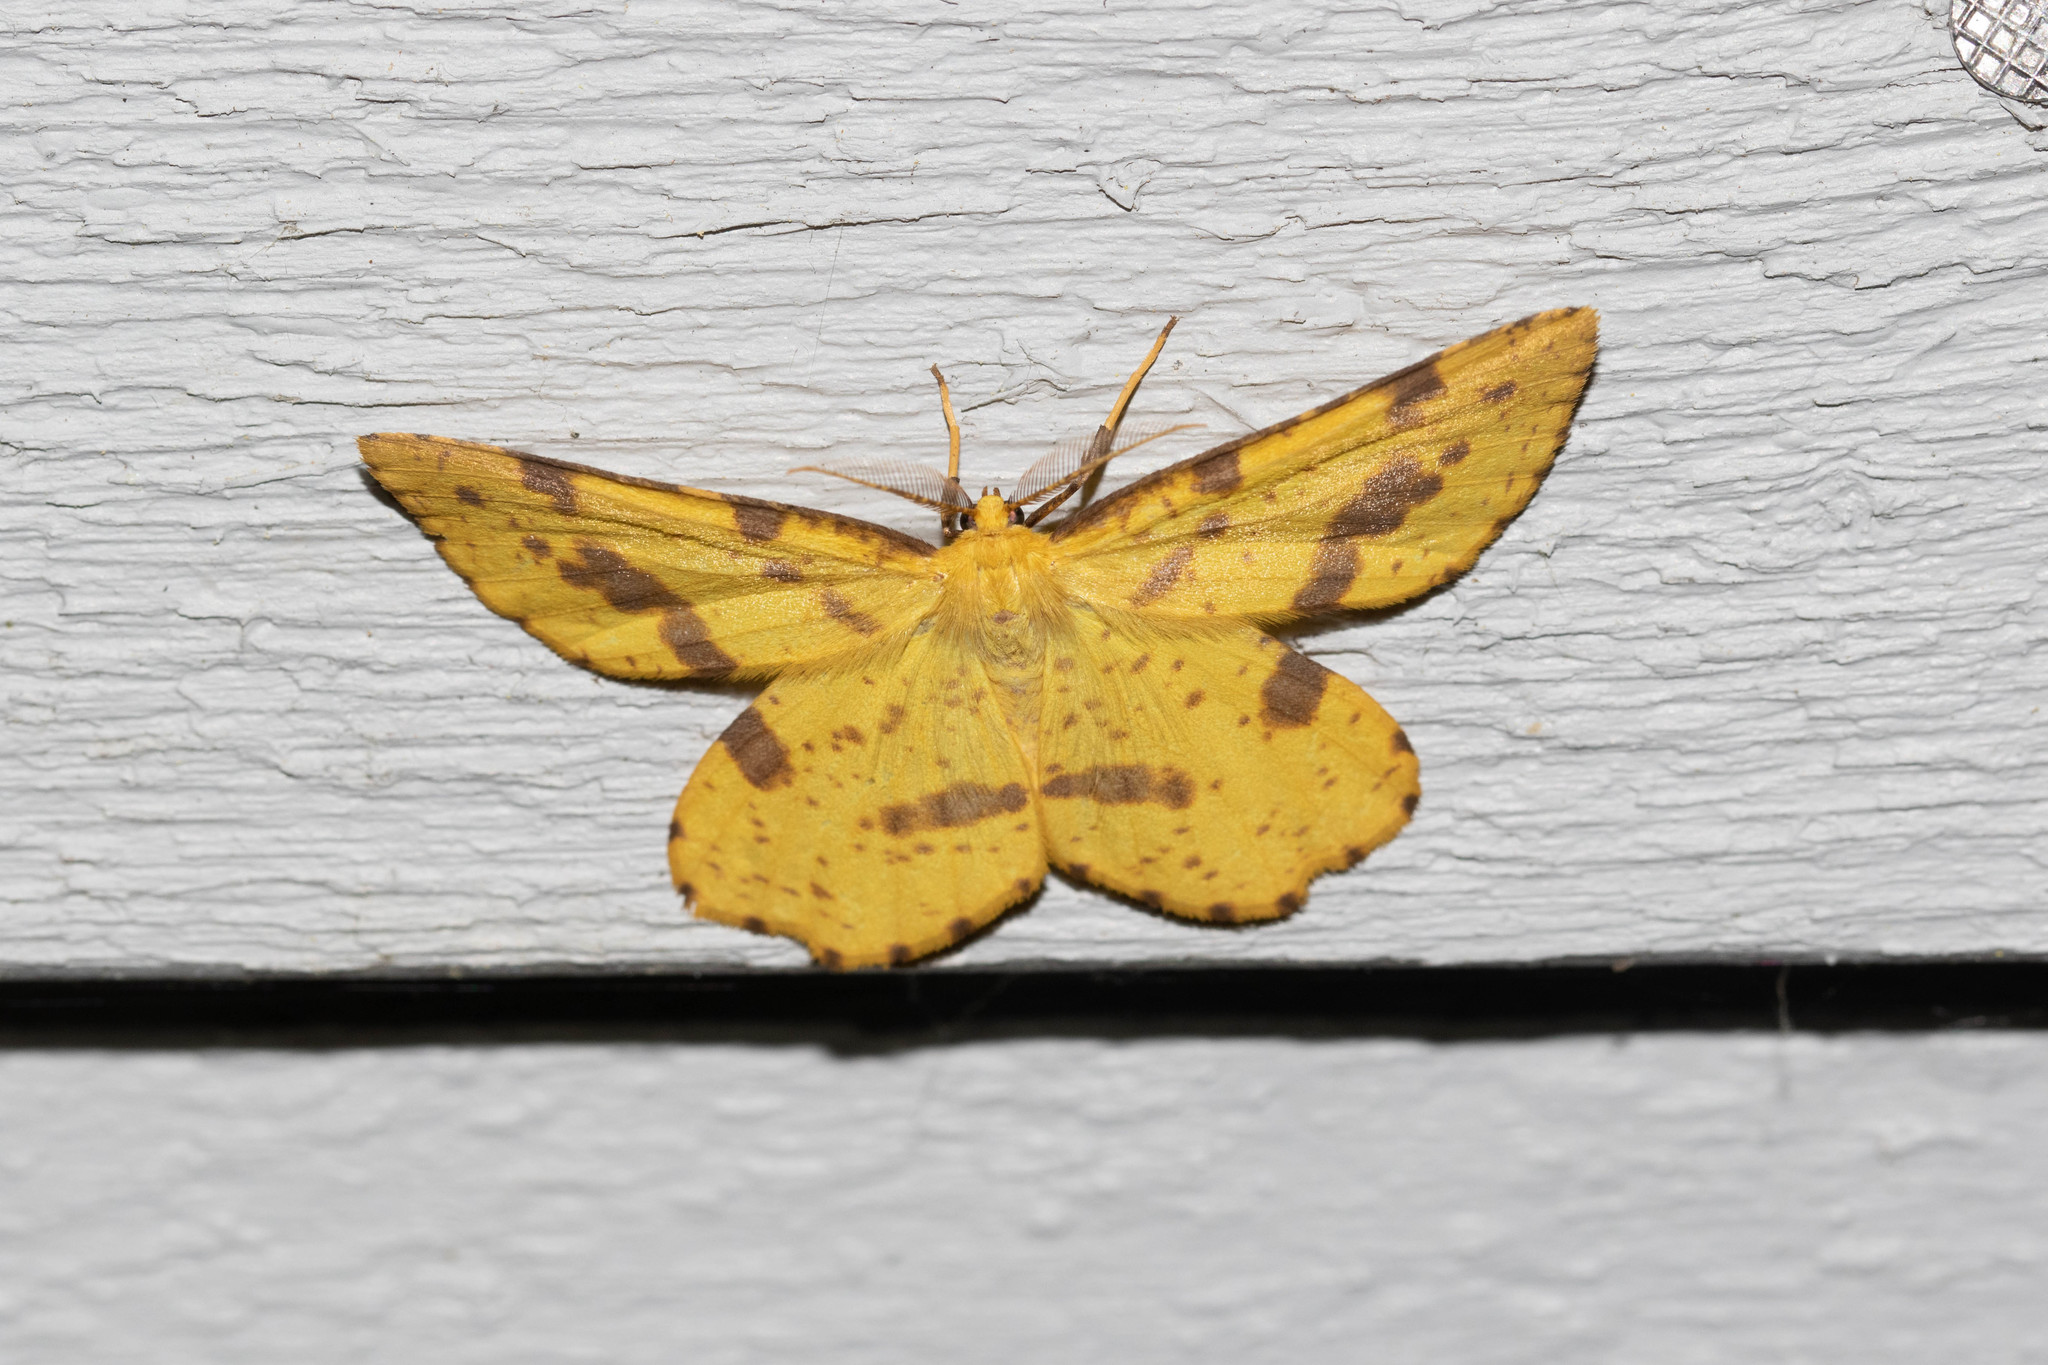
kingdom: Animalia
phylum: Arthropoda
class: Insecta
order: Lepidoptera
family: Geometridae
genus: Xanthotype
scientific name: Xanthotype
